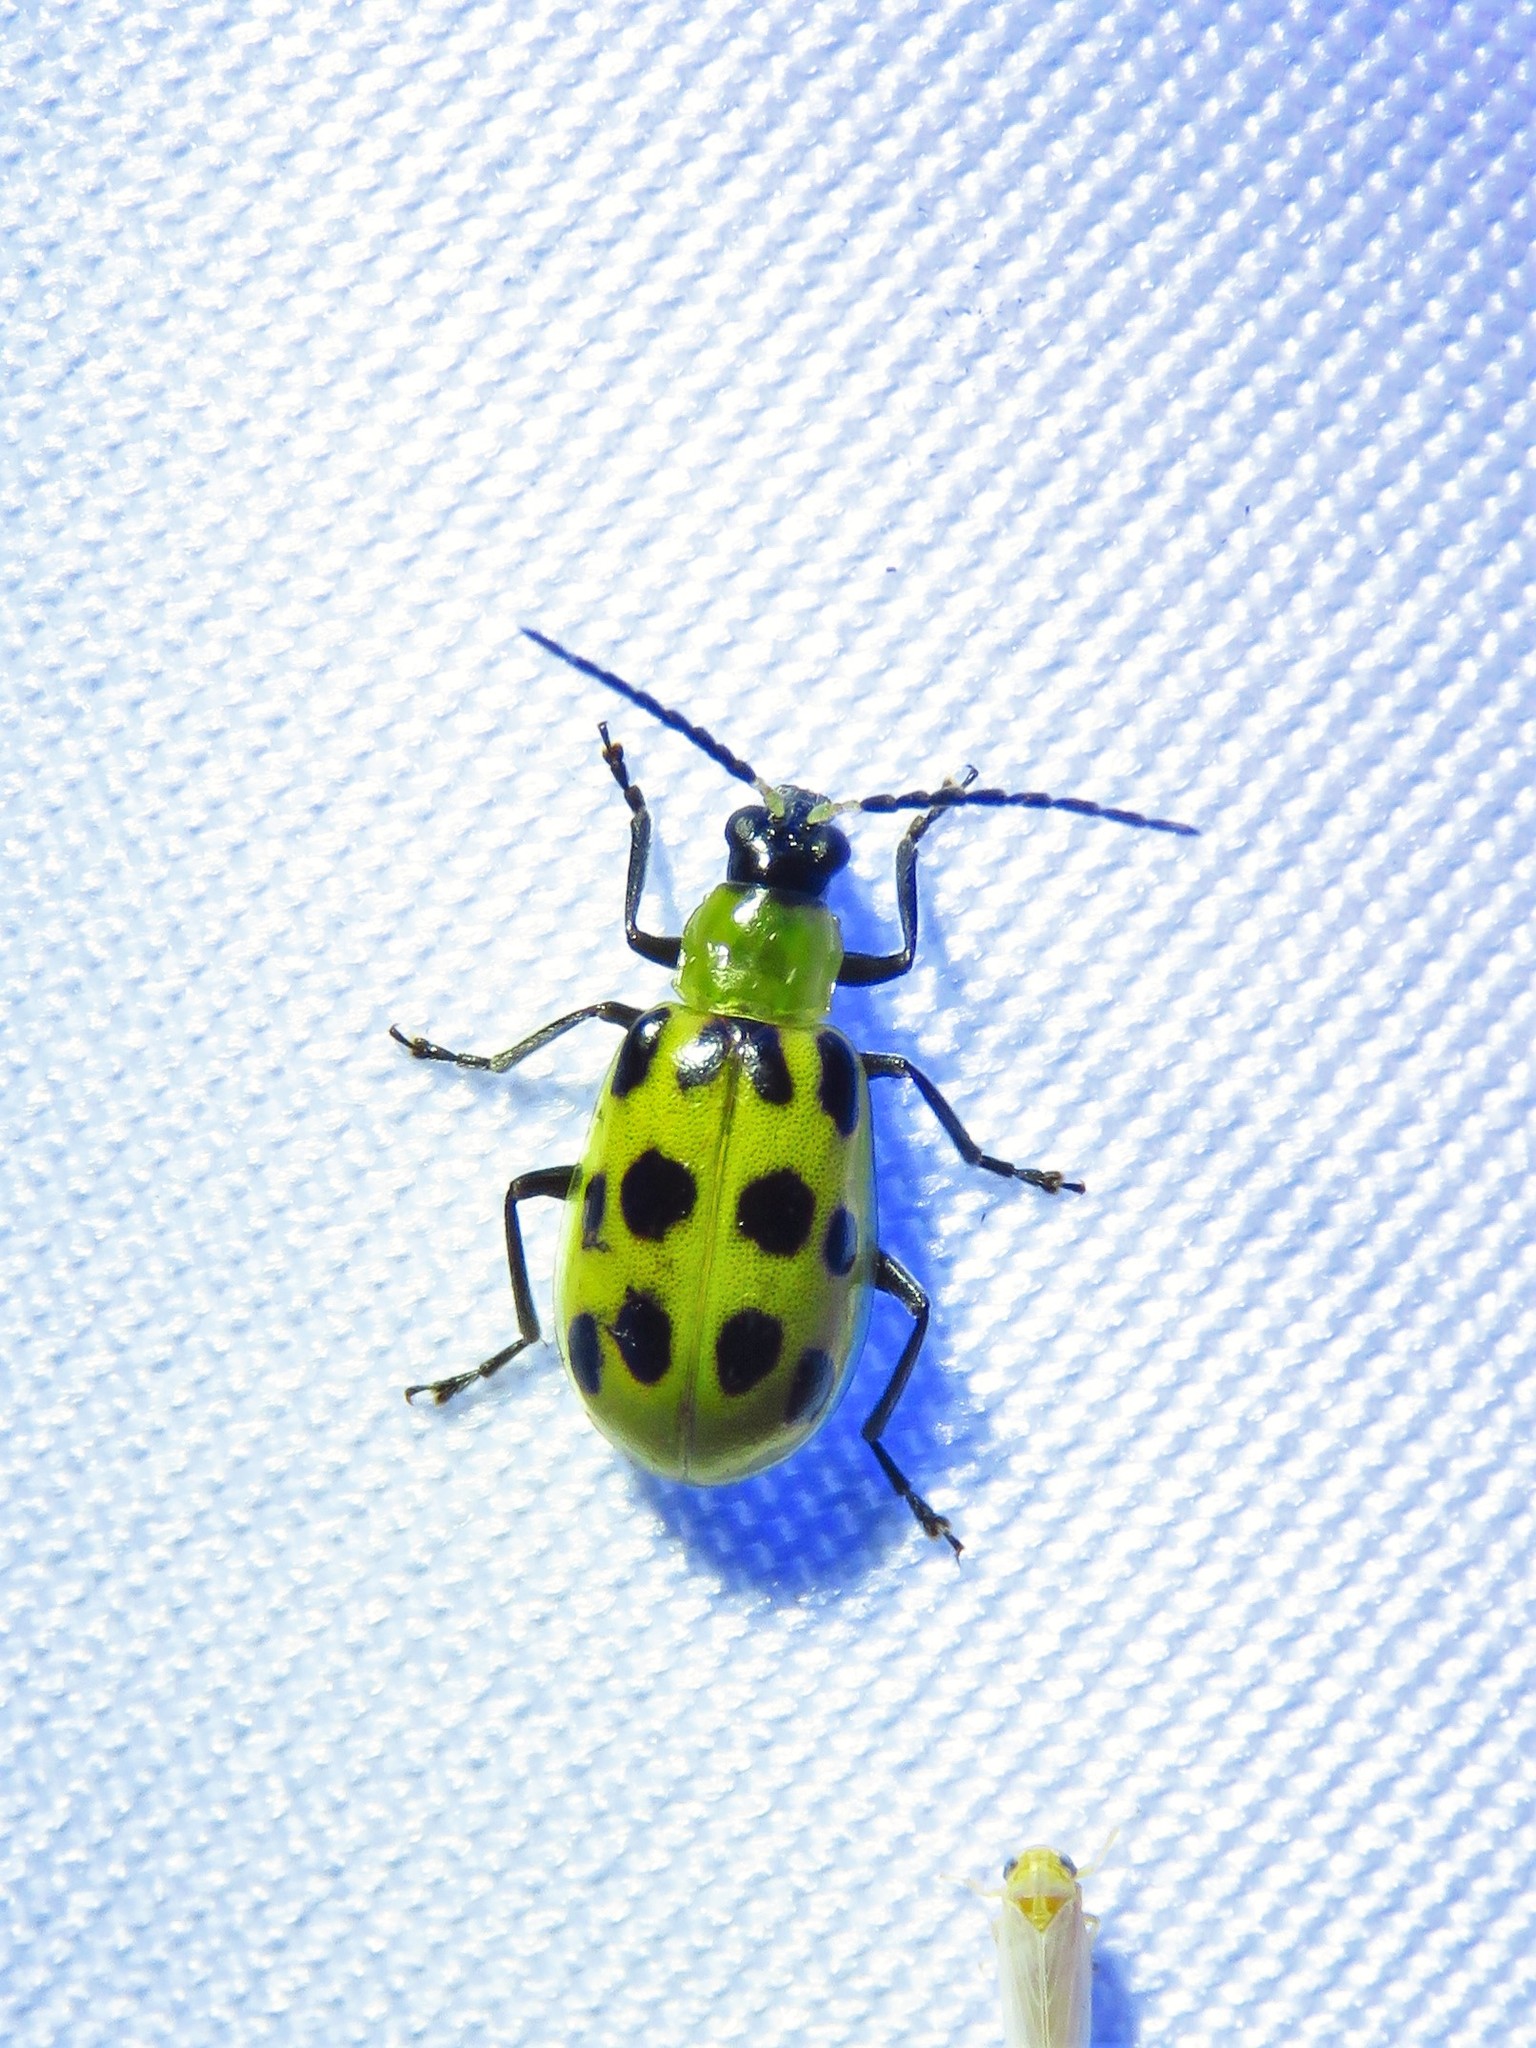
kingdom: Animalia
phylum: Arthropoda
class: Insecta
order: Coleoptera
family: Chrysomelidae
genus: Diabrotica
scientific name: Diabrotica undecimpunctata
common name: Spotted cucumber beetle
